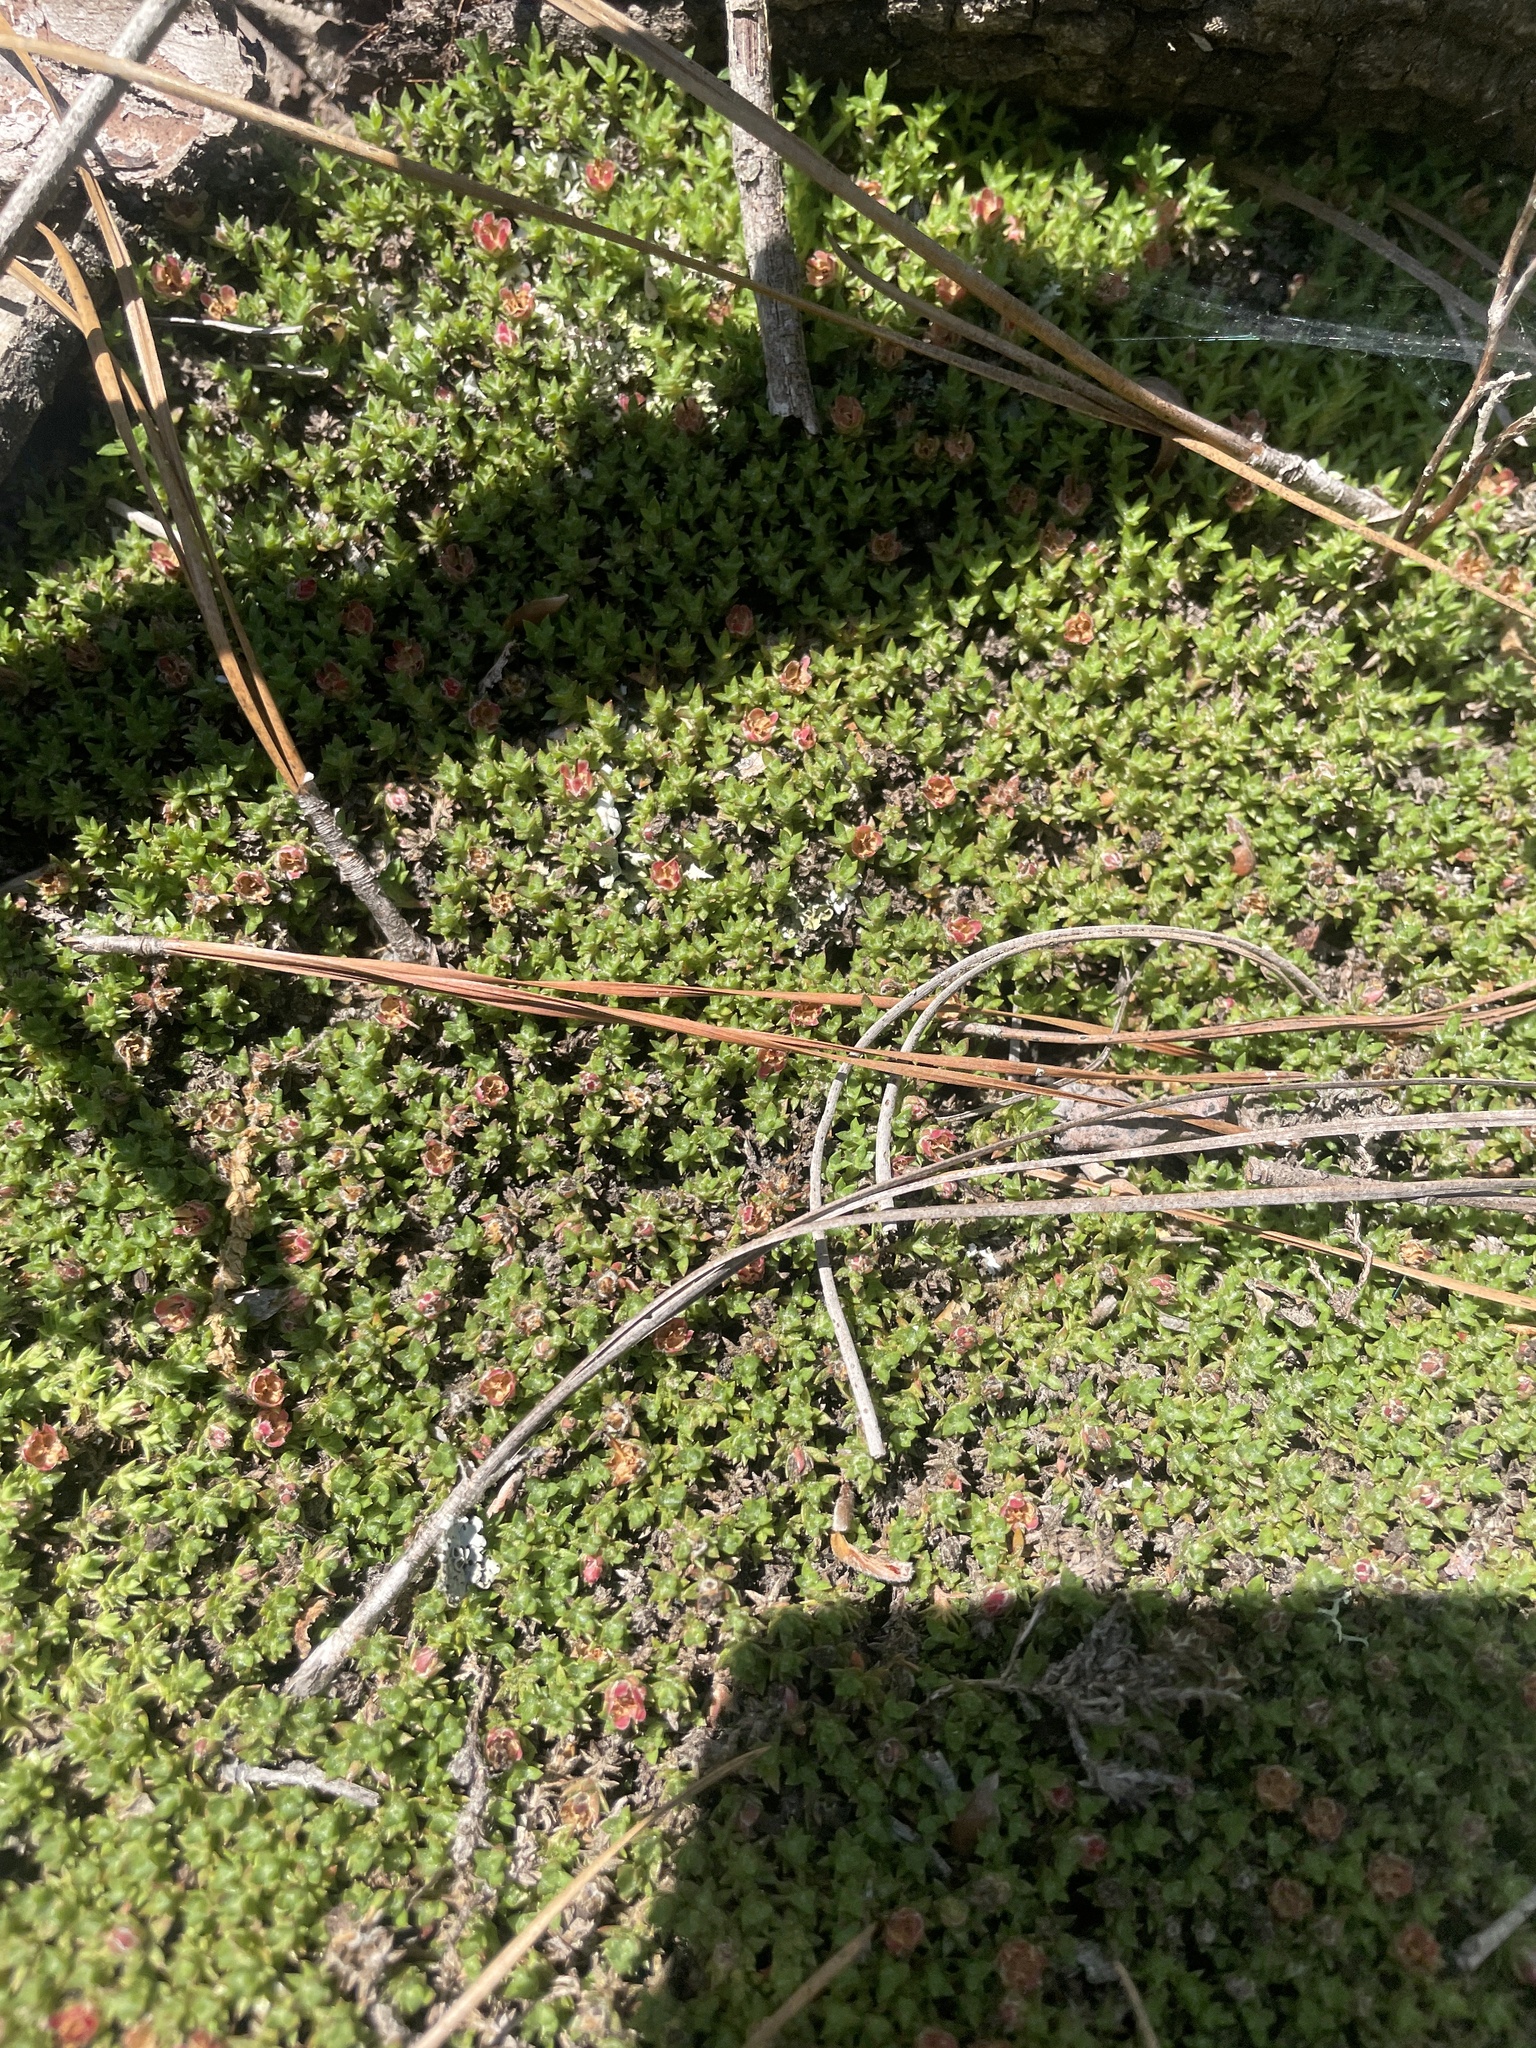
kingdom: Plantae
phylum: Tracheophyta
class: Magnoliopsida
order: Ericales
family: Diapensiaceae
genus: Pyxidanthera
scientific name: Pyxidanthera brevifolia
